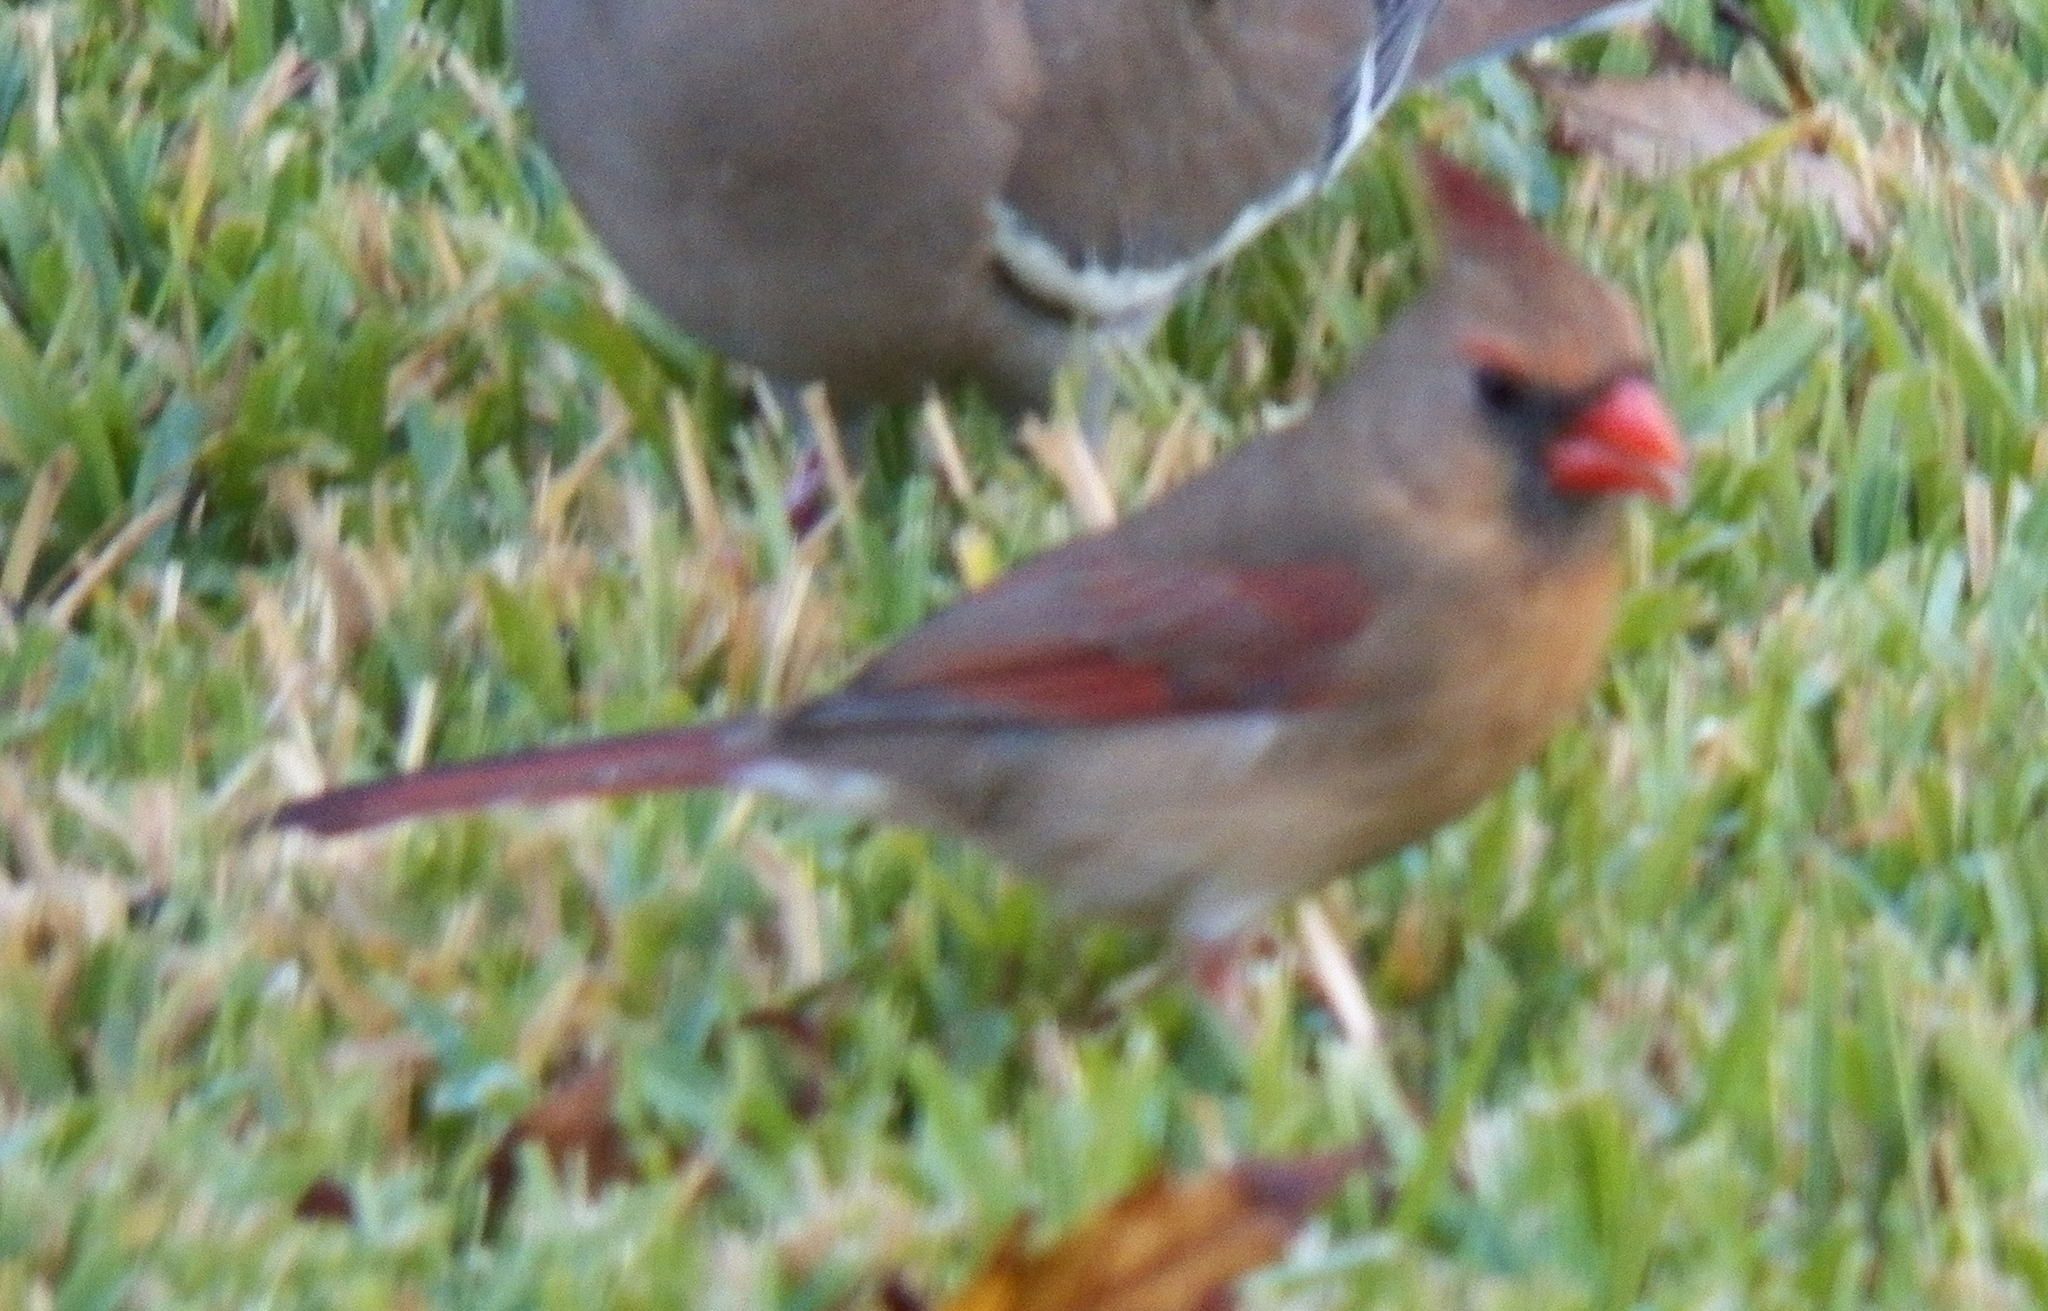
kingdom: Animalia
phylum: Chordata
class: Aves
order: Passeriformes
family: Cardinalidae
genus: Cardinalis
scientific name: Cardinalis cardinalis
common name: Northern cardinal
